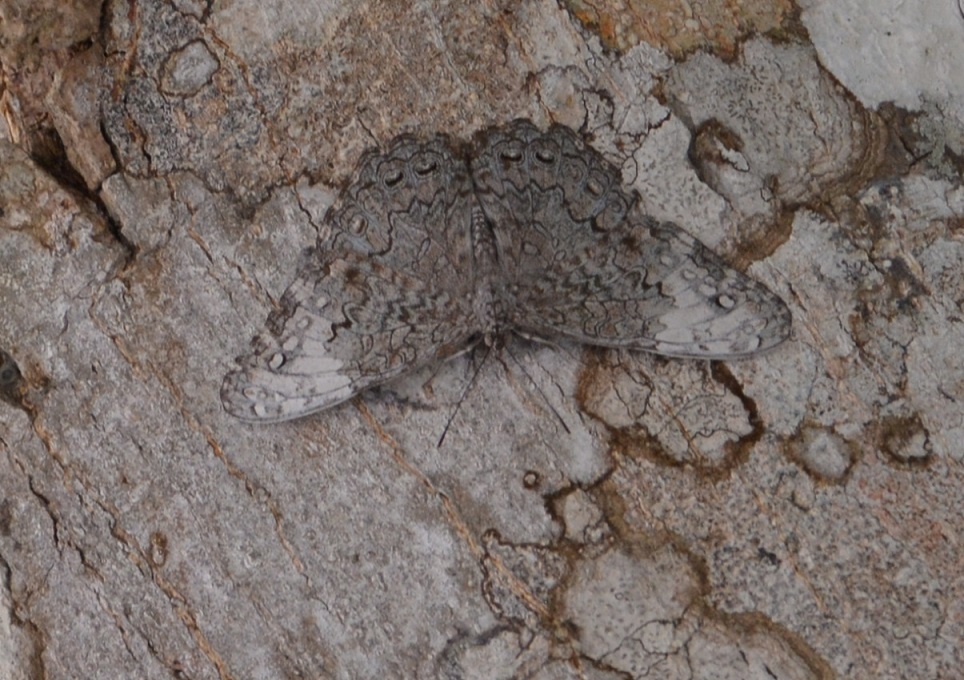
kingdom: Animalia
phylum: Arthropoda
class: Insecta
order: Lepidoptera
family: Nymphalidae
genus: Hamadryas
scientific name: Hamadryas glauconome
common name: Glaucous cracker
